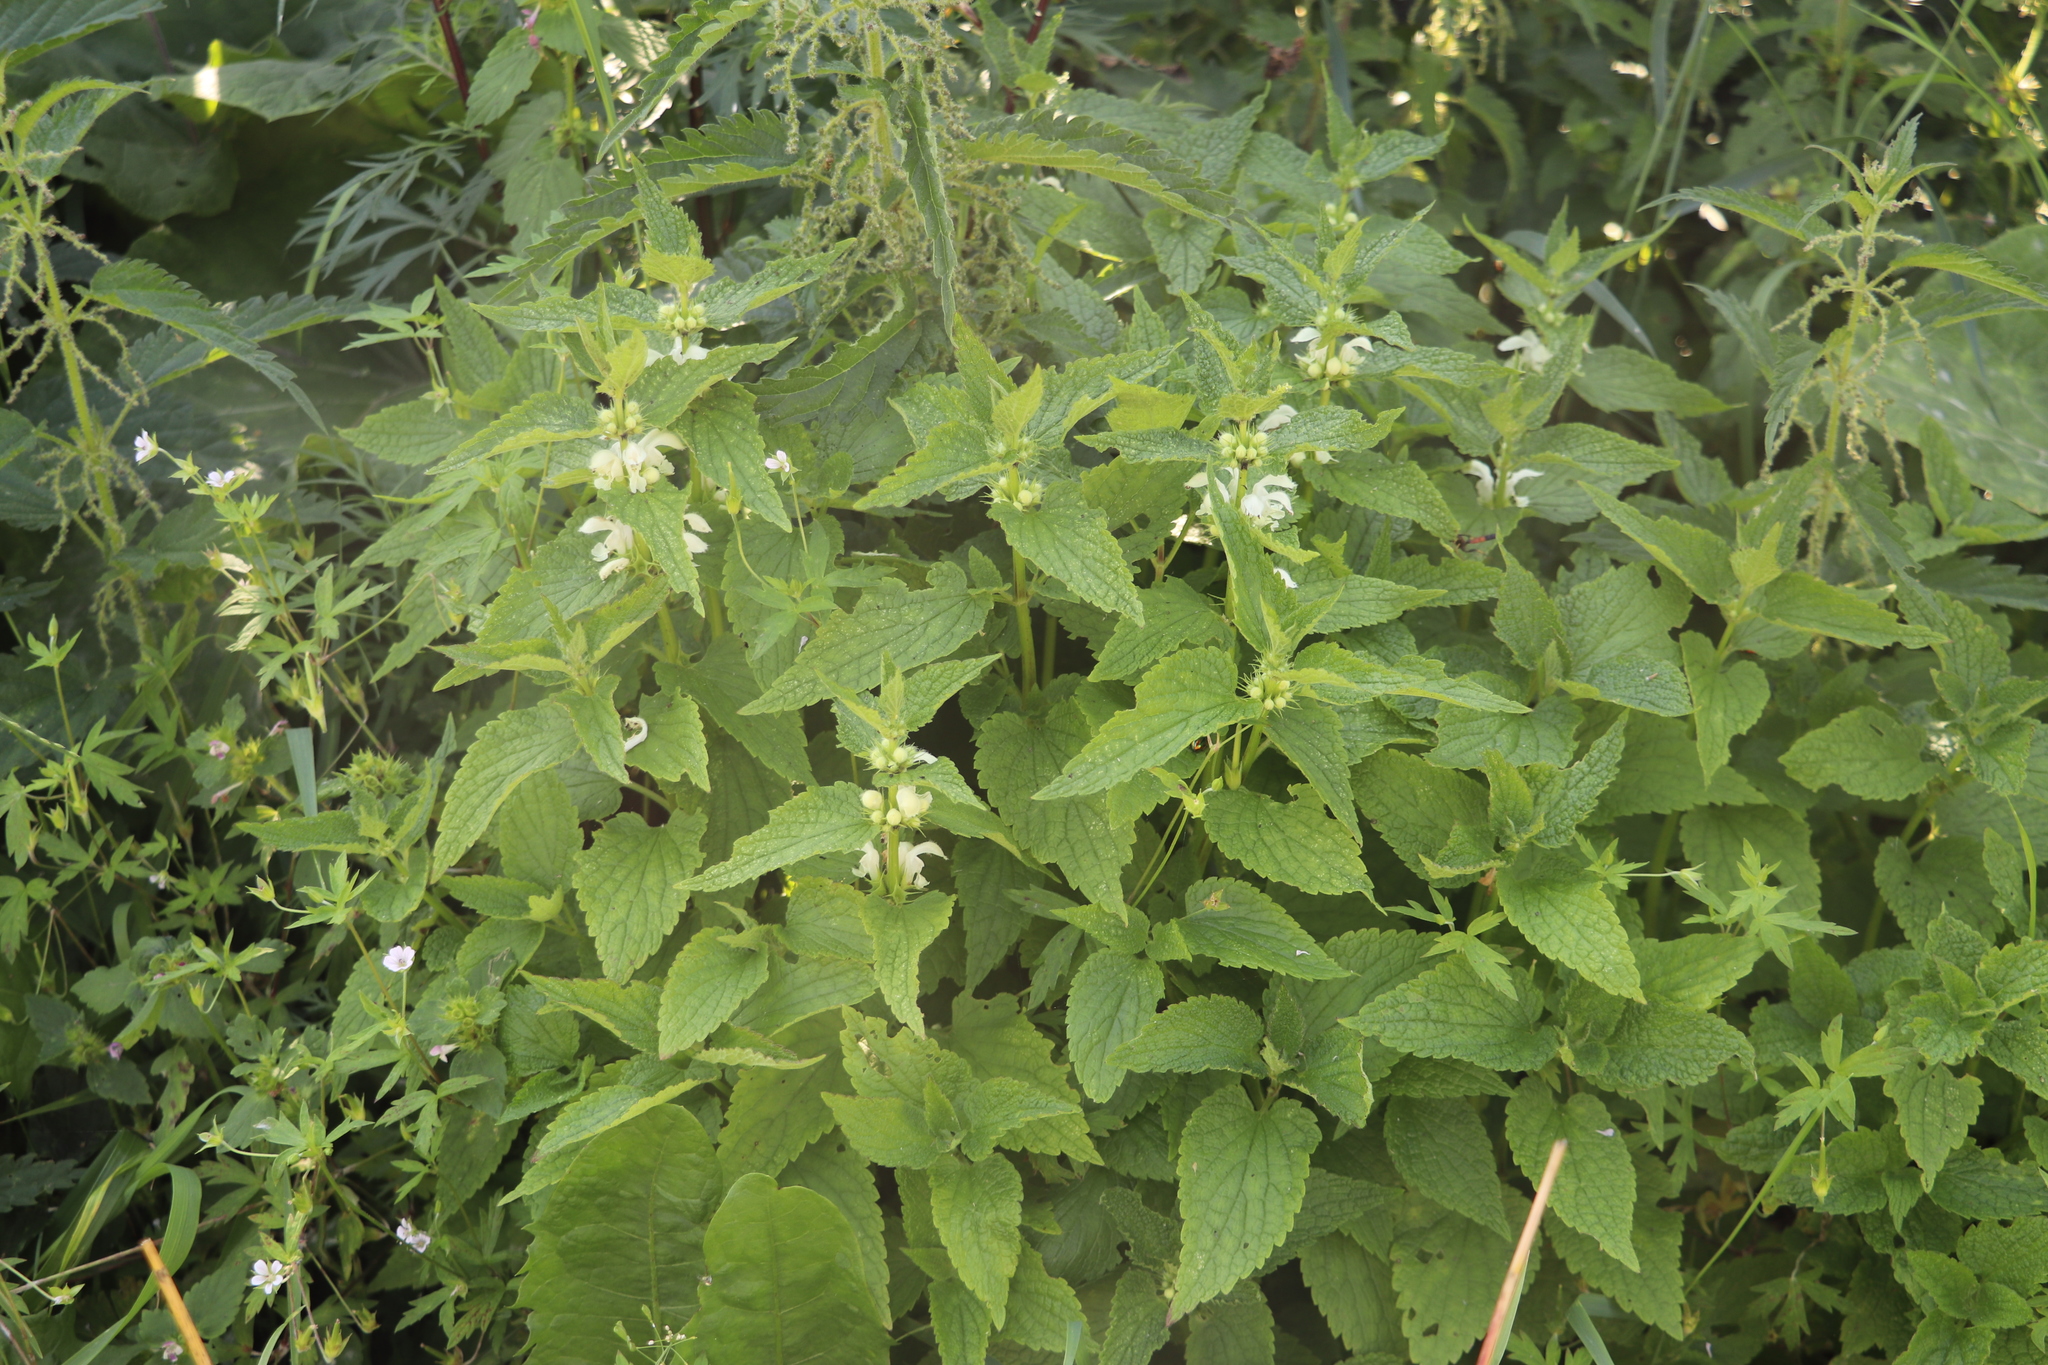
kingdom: Plantae
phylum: Tracheophyta
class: Magnoliopsida
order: Lamiales
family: Lamiaceae
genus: Lamium
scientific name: Lamium album
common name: White dead-nettle
